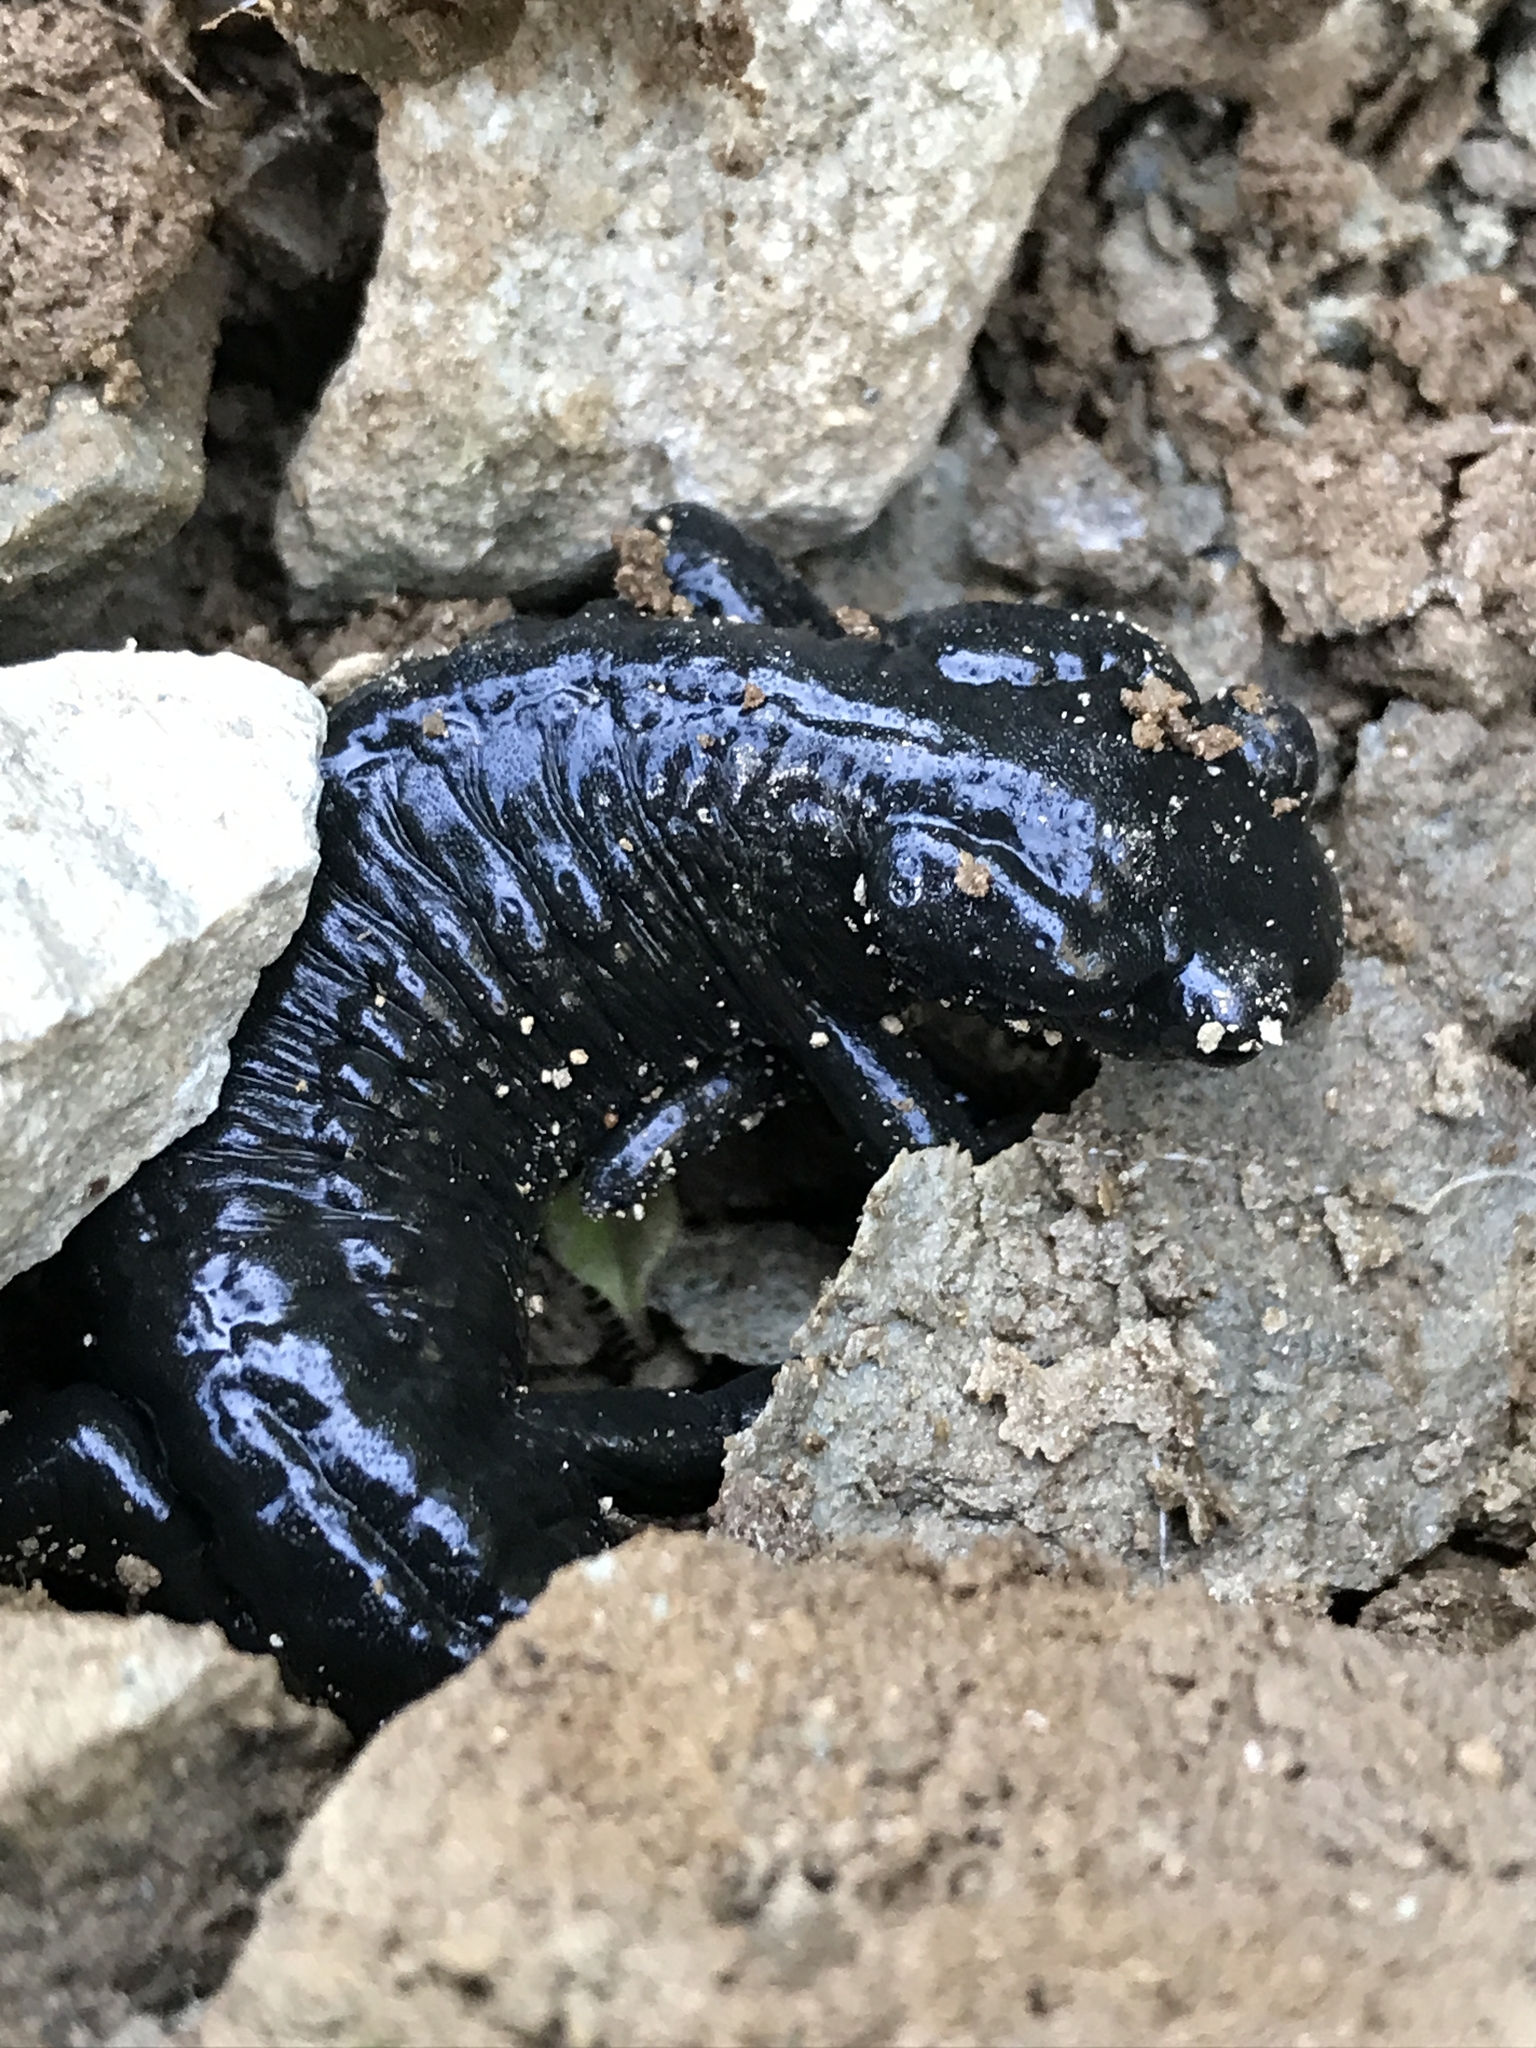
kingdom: Animalia
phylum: Chordata
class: Amphibia
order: Caudata
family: Salamandridae
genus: Salamandra
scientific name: Salamandra atra
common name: Alpine salamander
